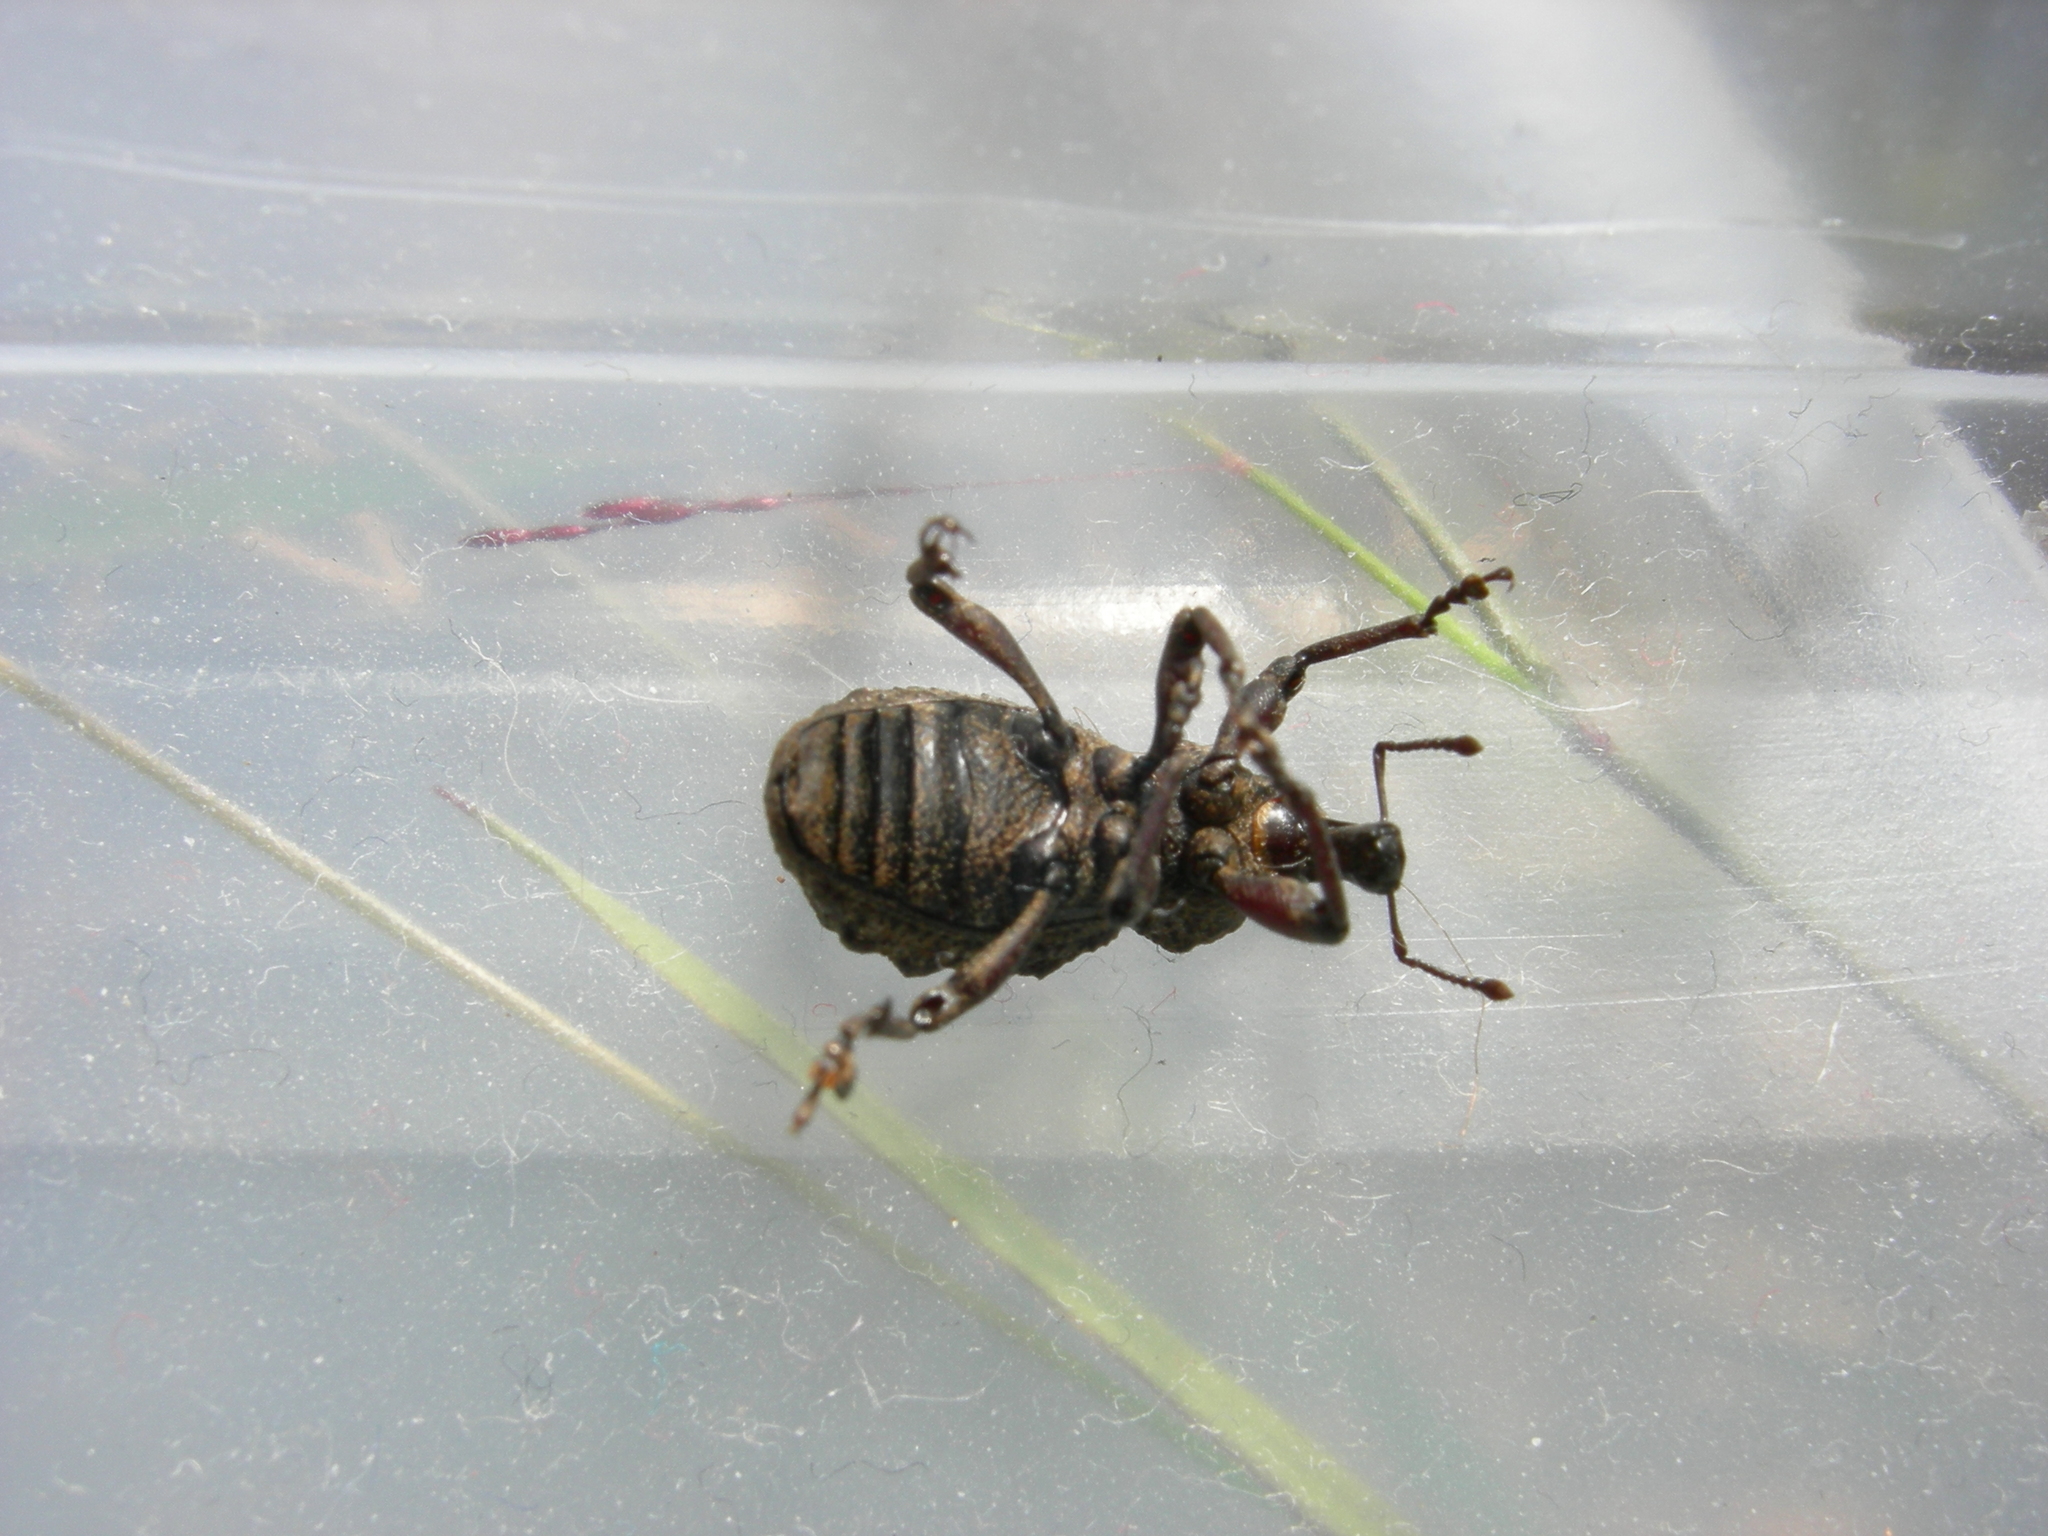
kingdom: Animalia
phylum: Arthropoda
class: Insecta
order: Coleoptera
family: Curculionidae
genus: Lyperobius
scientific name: Lyperobius tuberculatus
